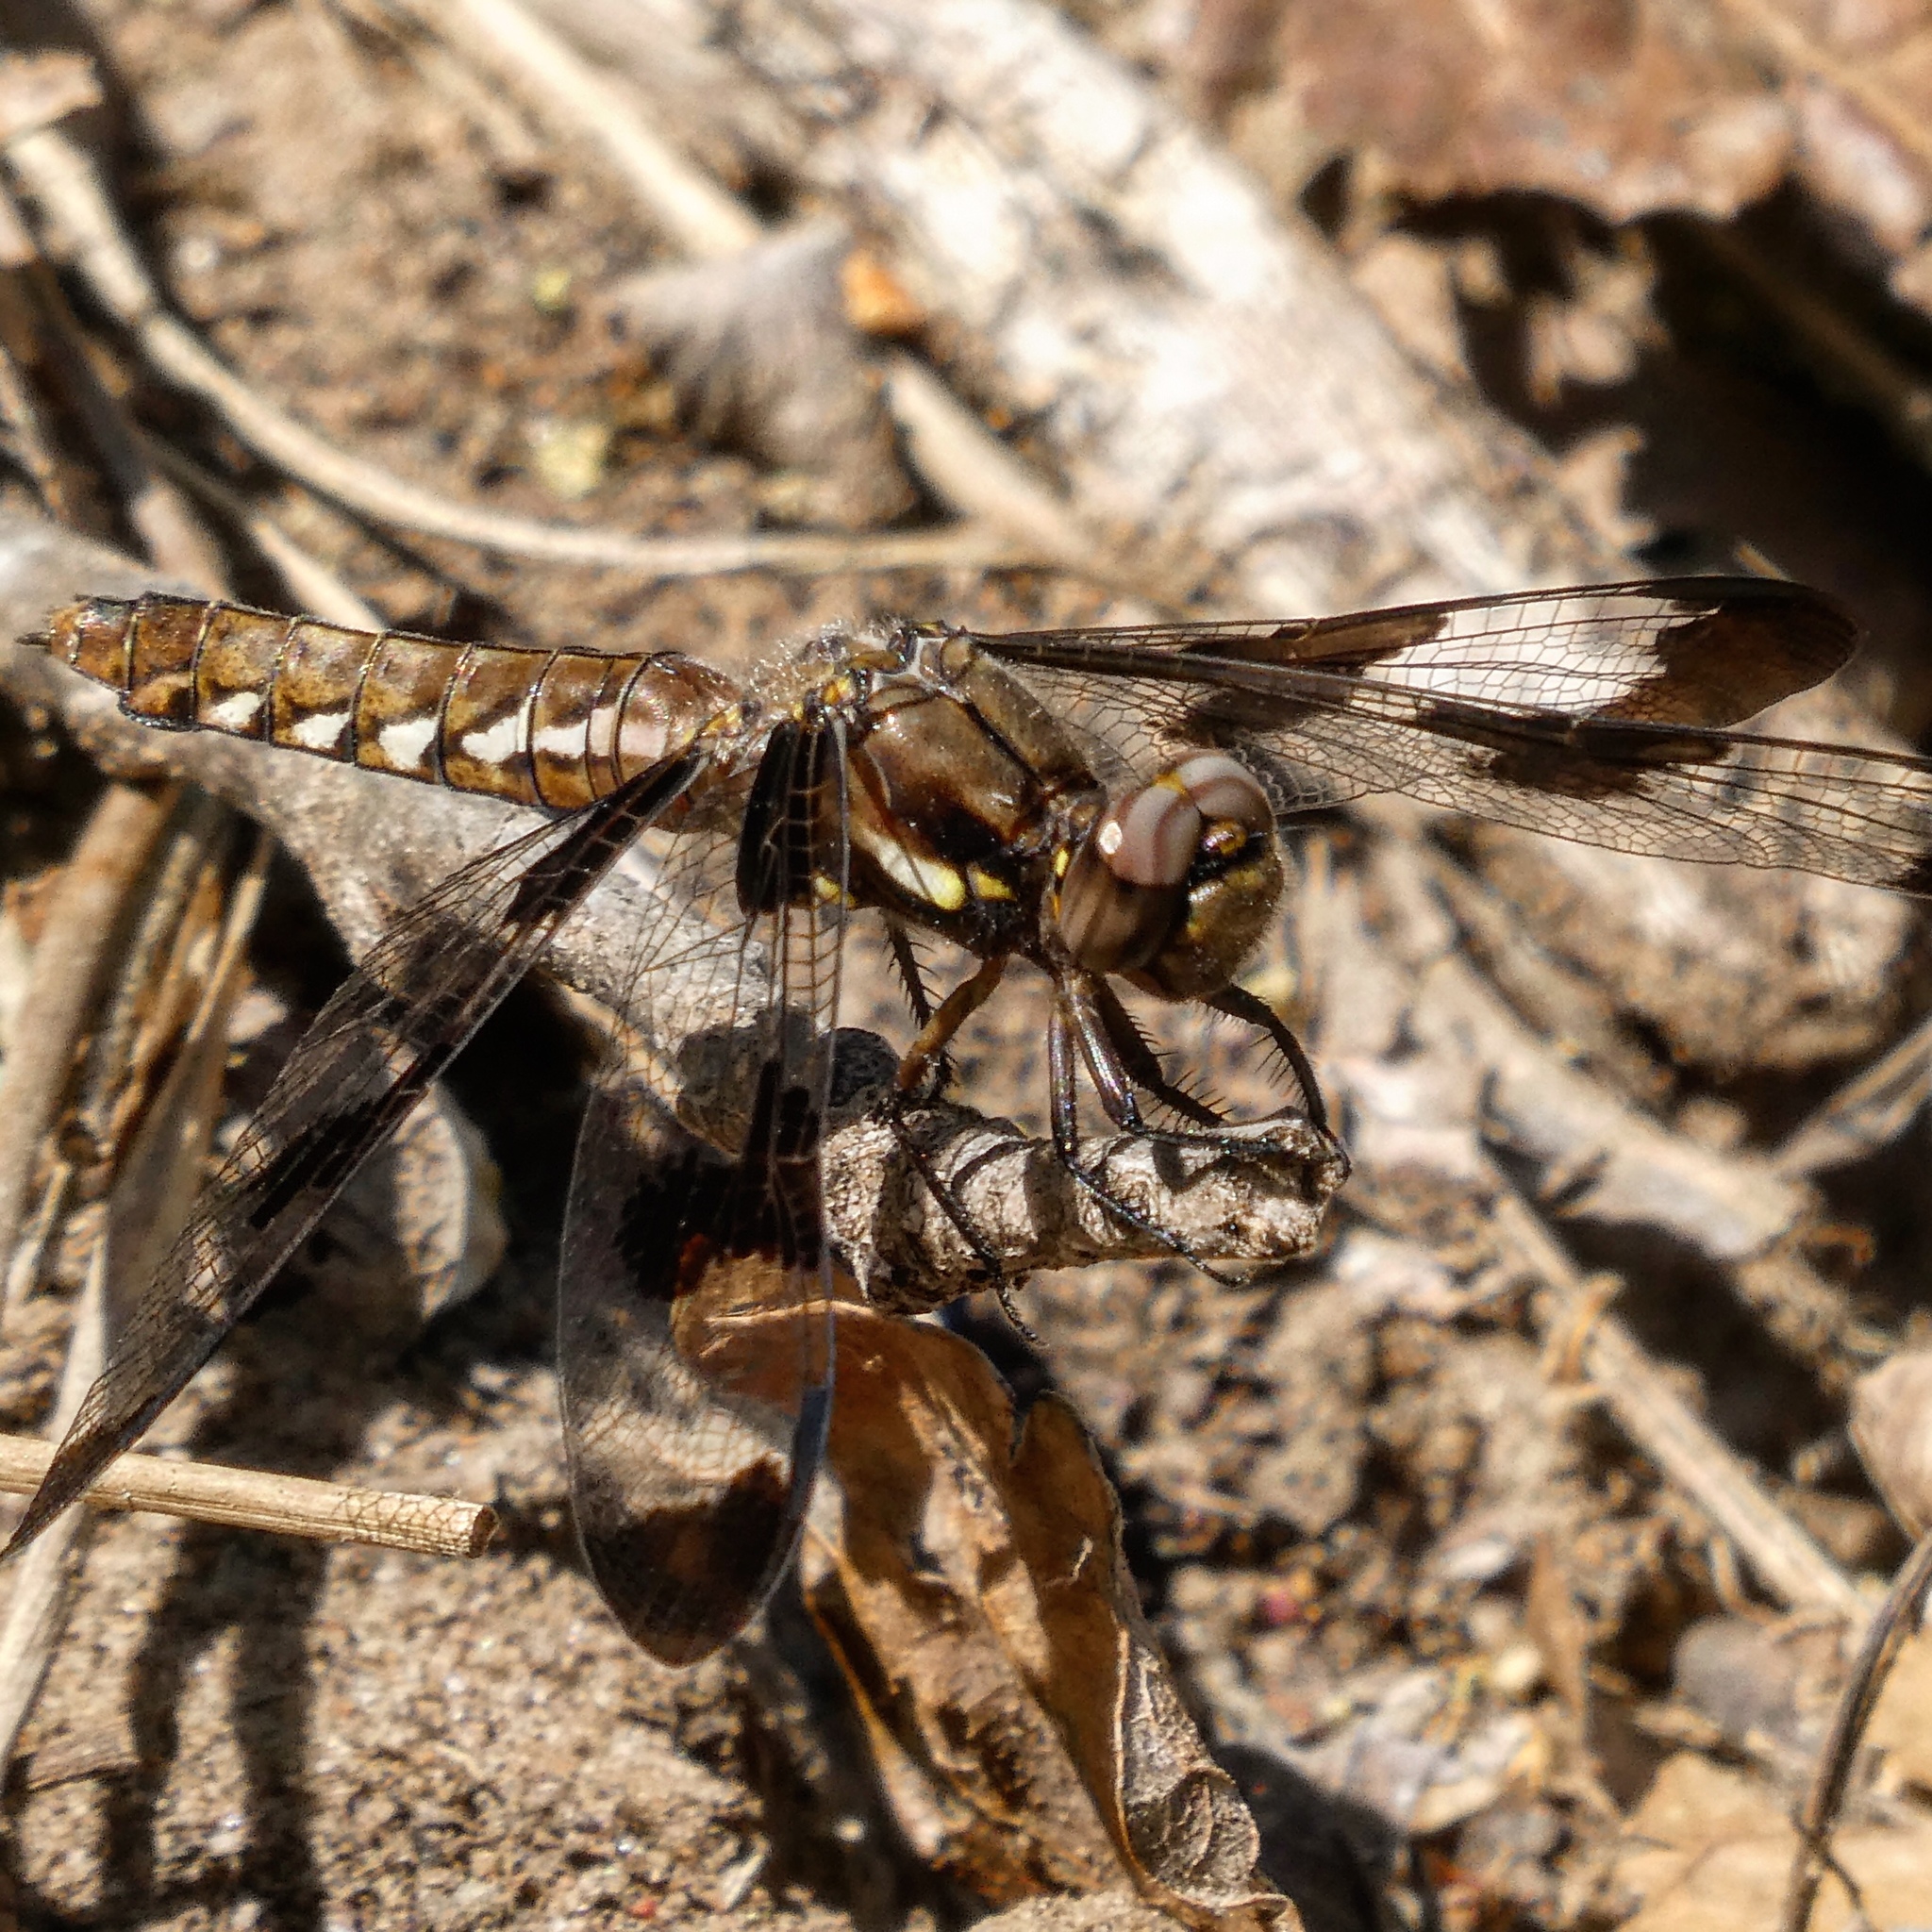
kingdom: Animalia
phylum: Arthropoda
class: Insecta
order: Odonata
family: Libellulidae
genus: Plathemis
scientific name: Plathemis lydia
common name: Common whitetail
